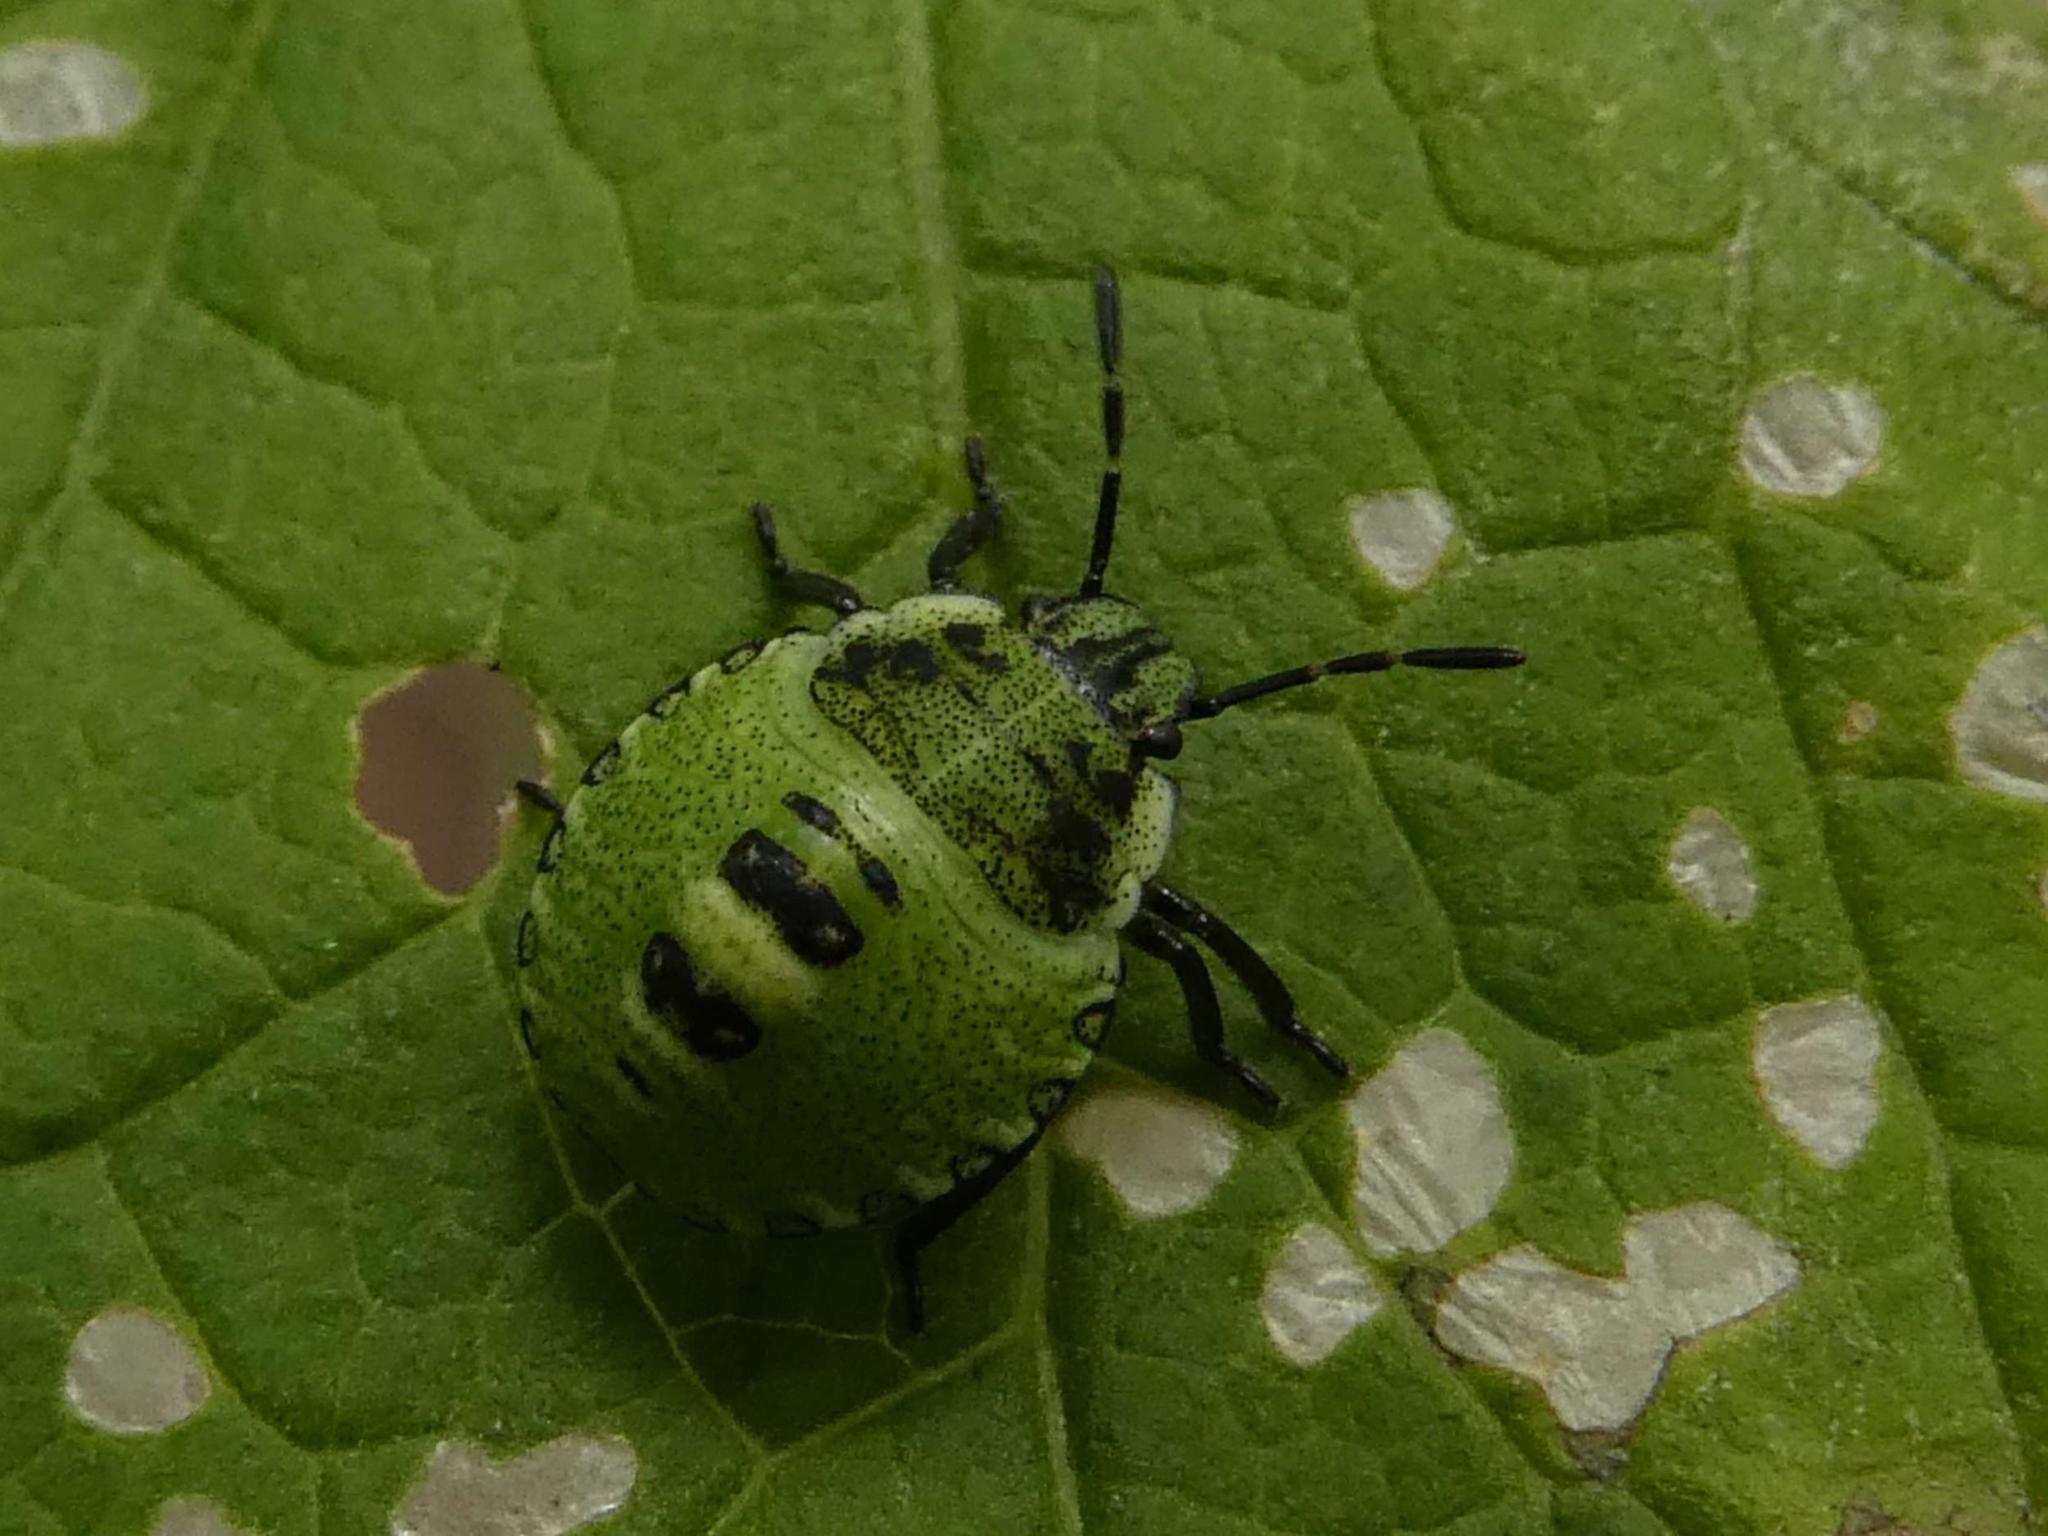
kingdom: Animalia
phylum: Arthropoda
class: Insecta
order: Hemiptera
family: Pentatomidae
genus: Palomena
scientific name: Palomena prasina
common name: Green shieldbug
